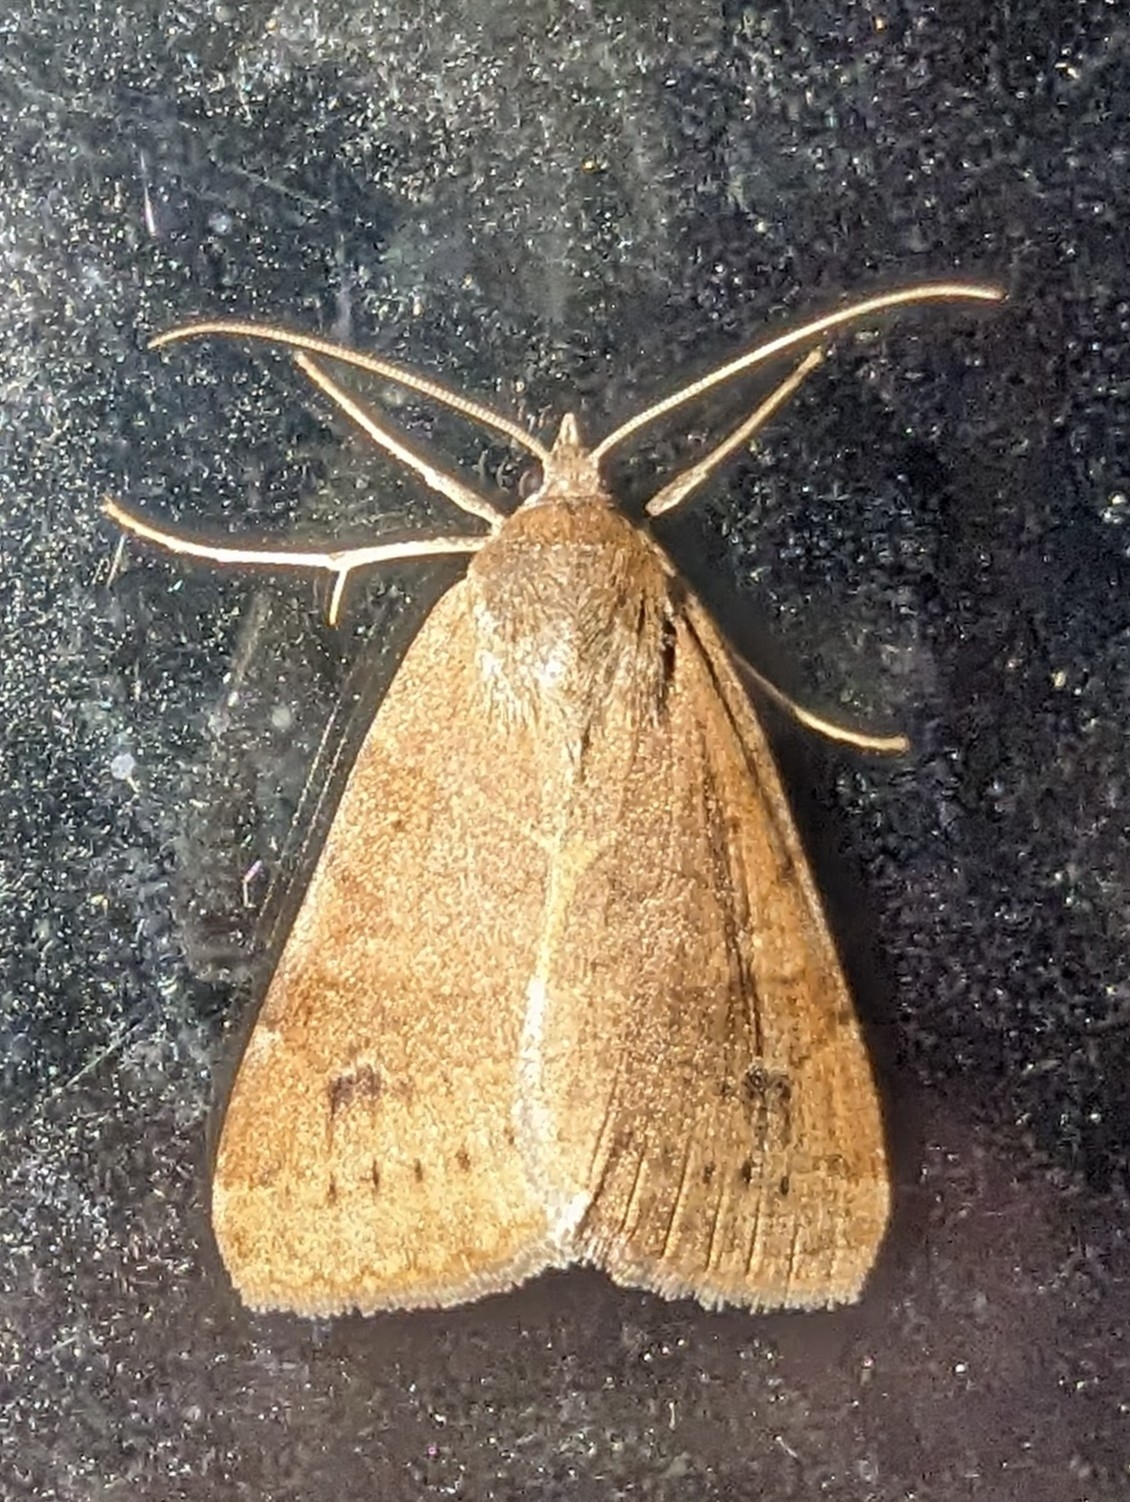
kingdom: Animalia
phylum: Arthropoda
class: Insecta
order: Lepidoptera
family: Erebidae
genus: Caenurgia
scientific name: Caenurgia chloropha
